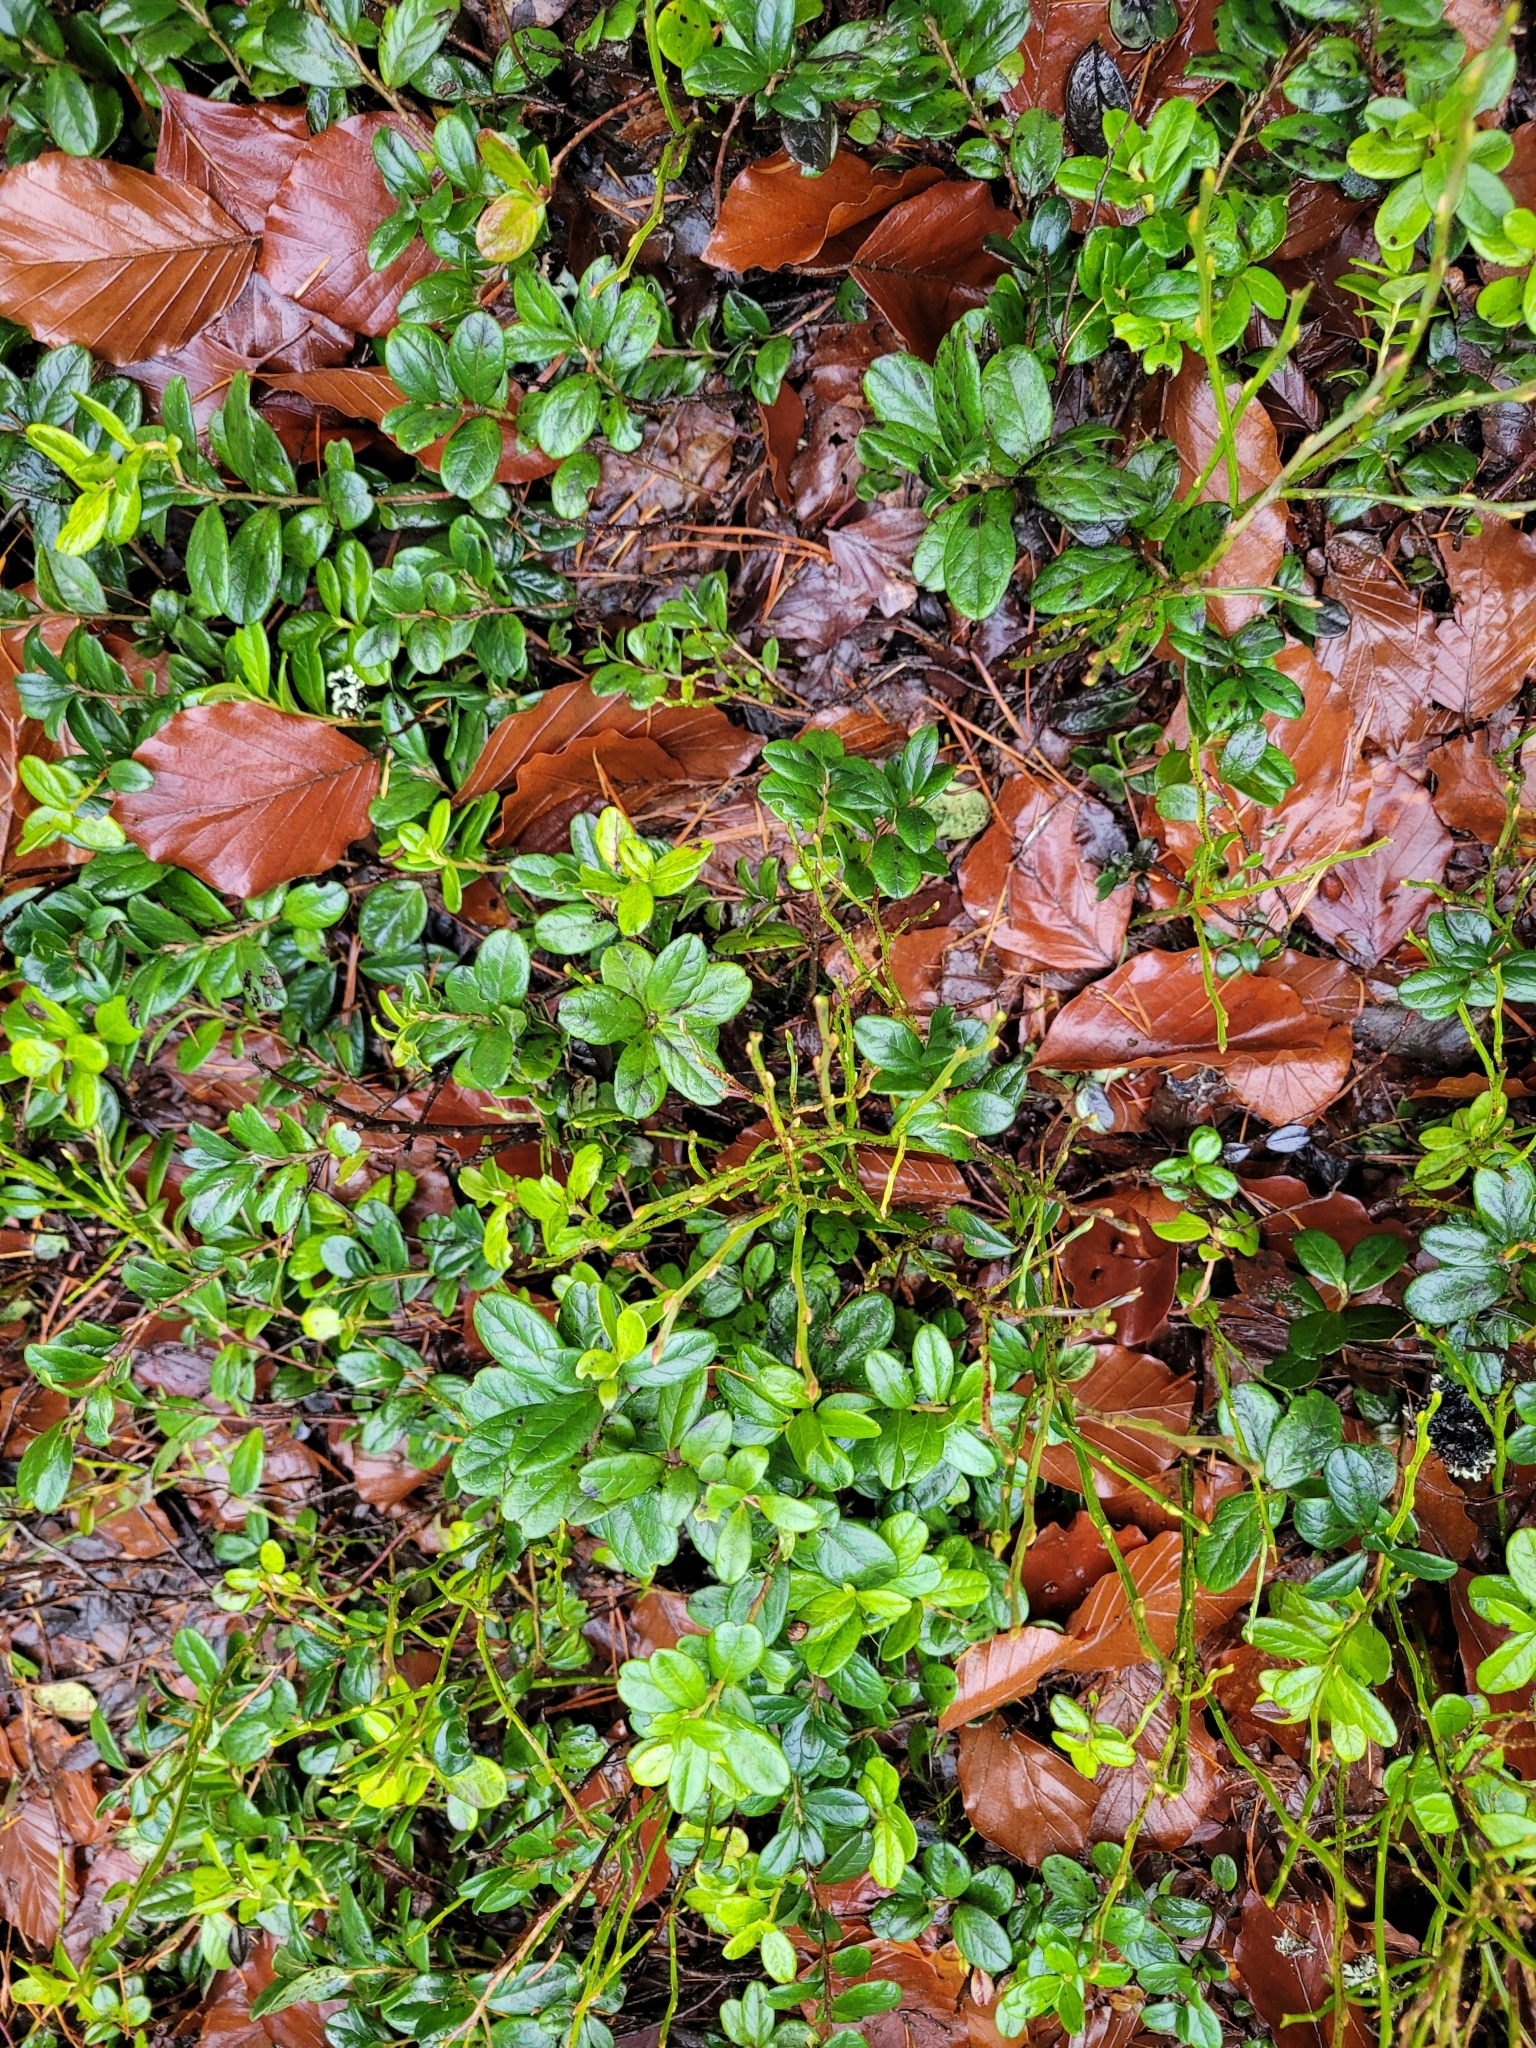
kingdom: Plantae
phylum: Tracheophyta
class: Magnoliopsida
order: Ericales
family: Ericaceae
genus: Vaccinium
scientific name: Vaccinium vitis-idaea
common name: Cowberry
